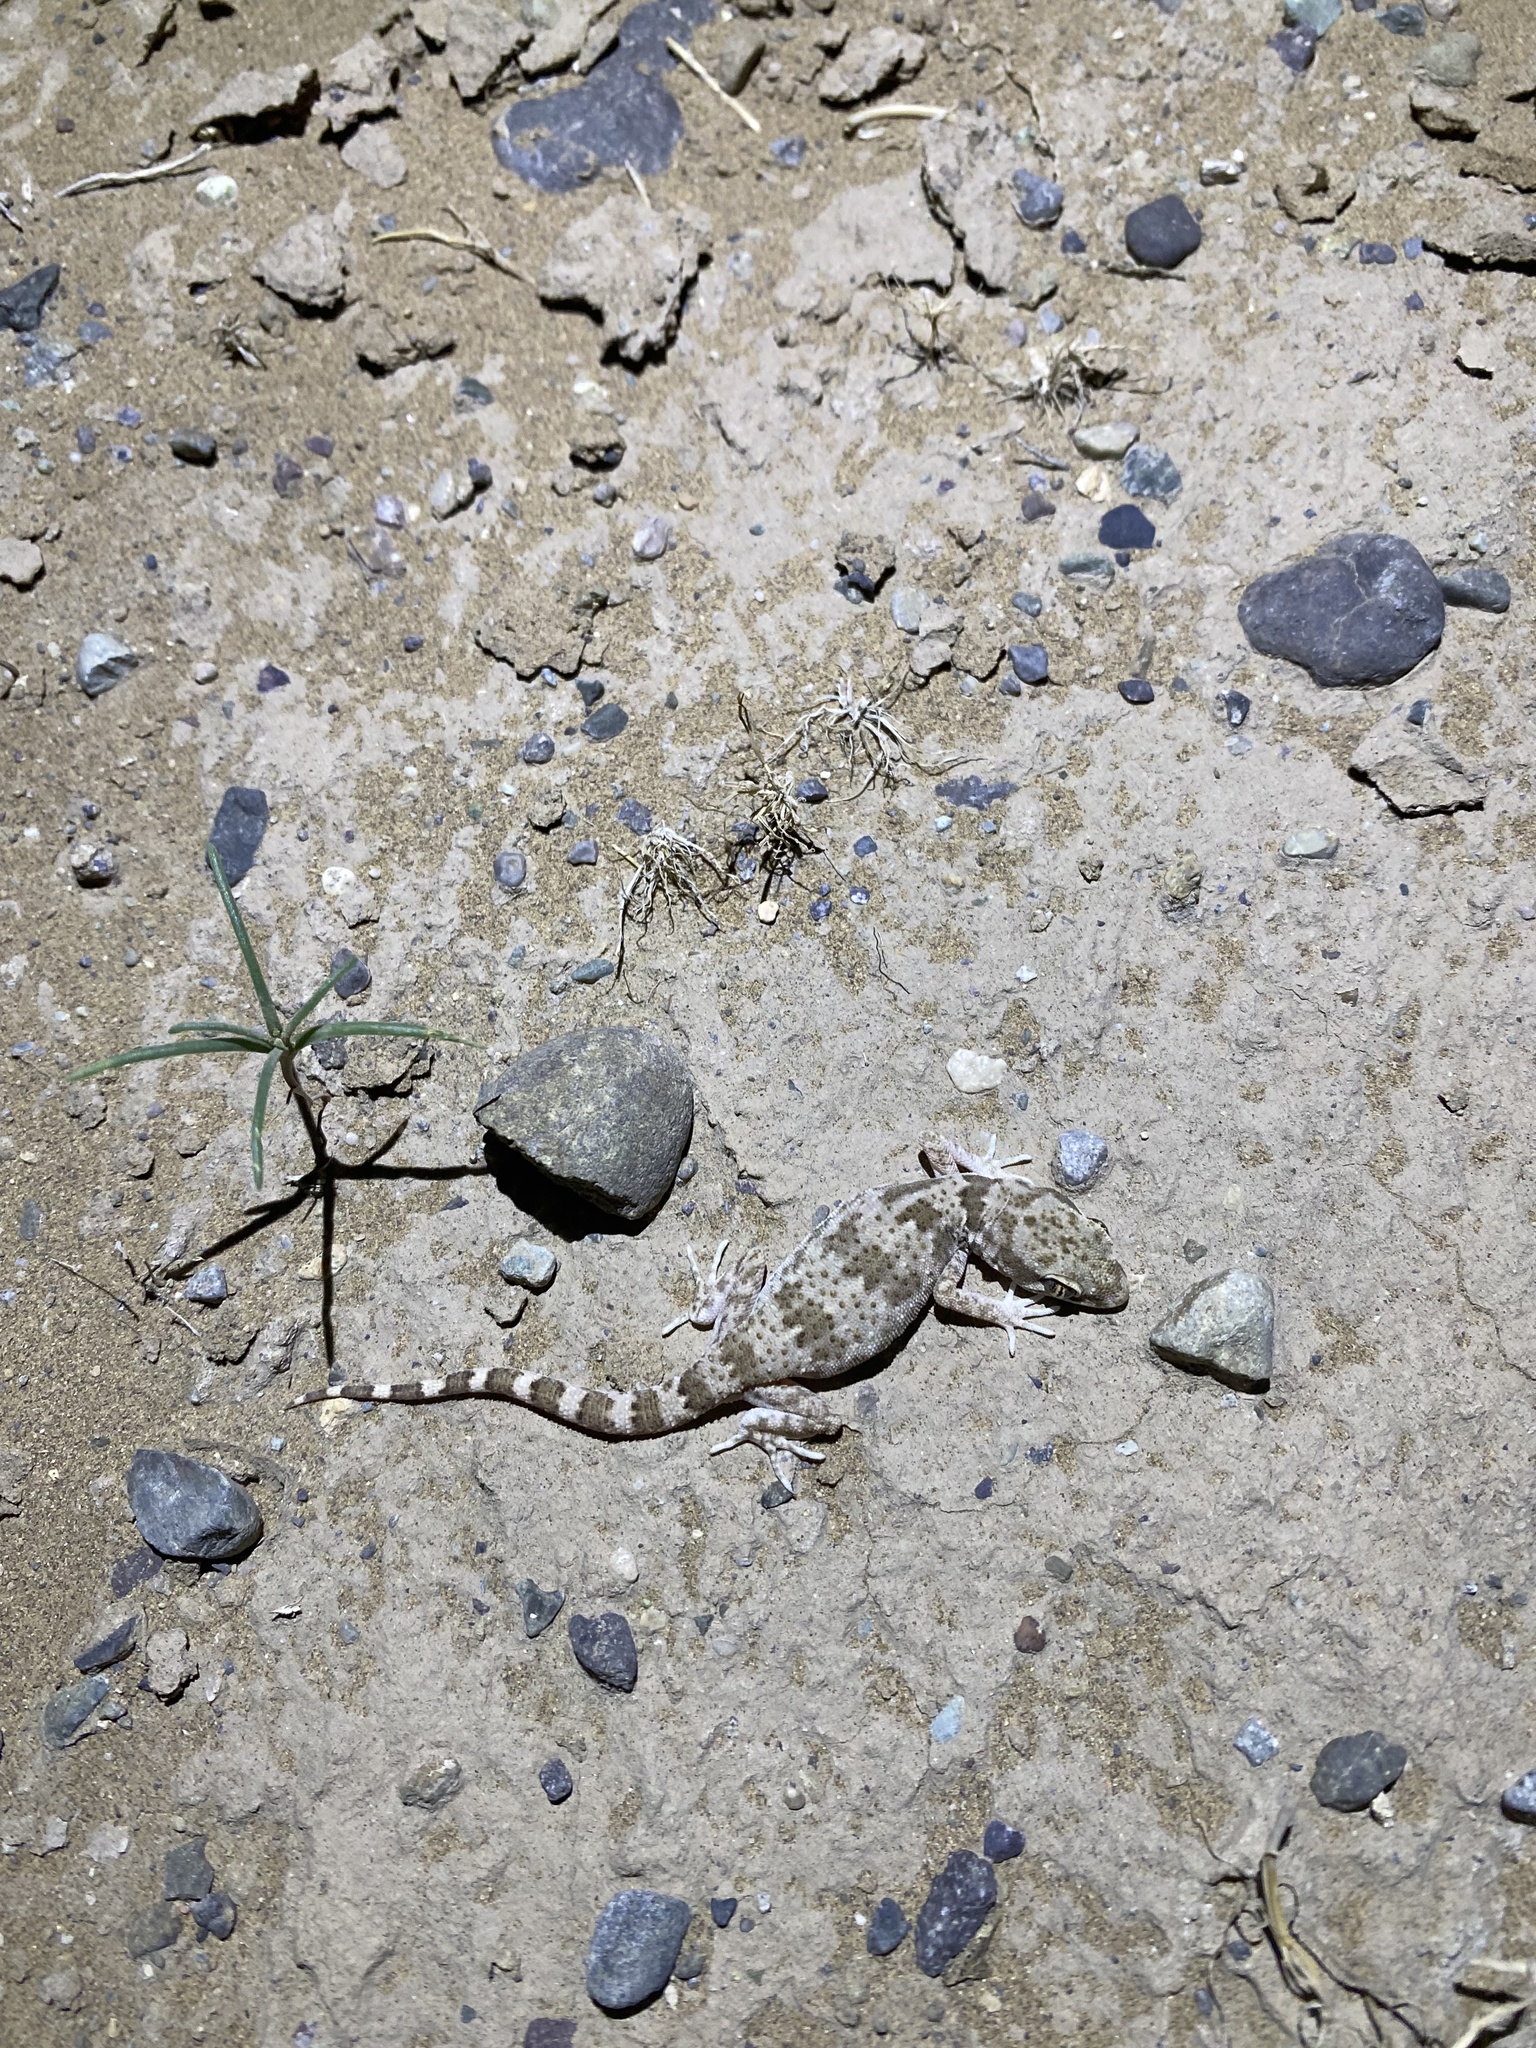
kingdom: Animalia
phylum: Chordata
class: Squamata
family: Gekkonidae
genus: Bunopus
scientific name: Bunopus crassicauda
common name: Thick-tailed tuberculated gecko
